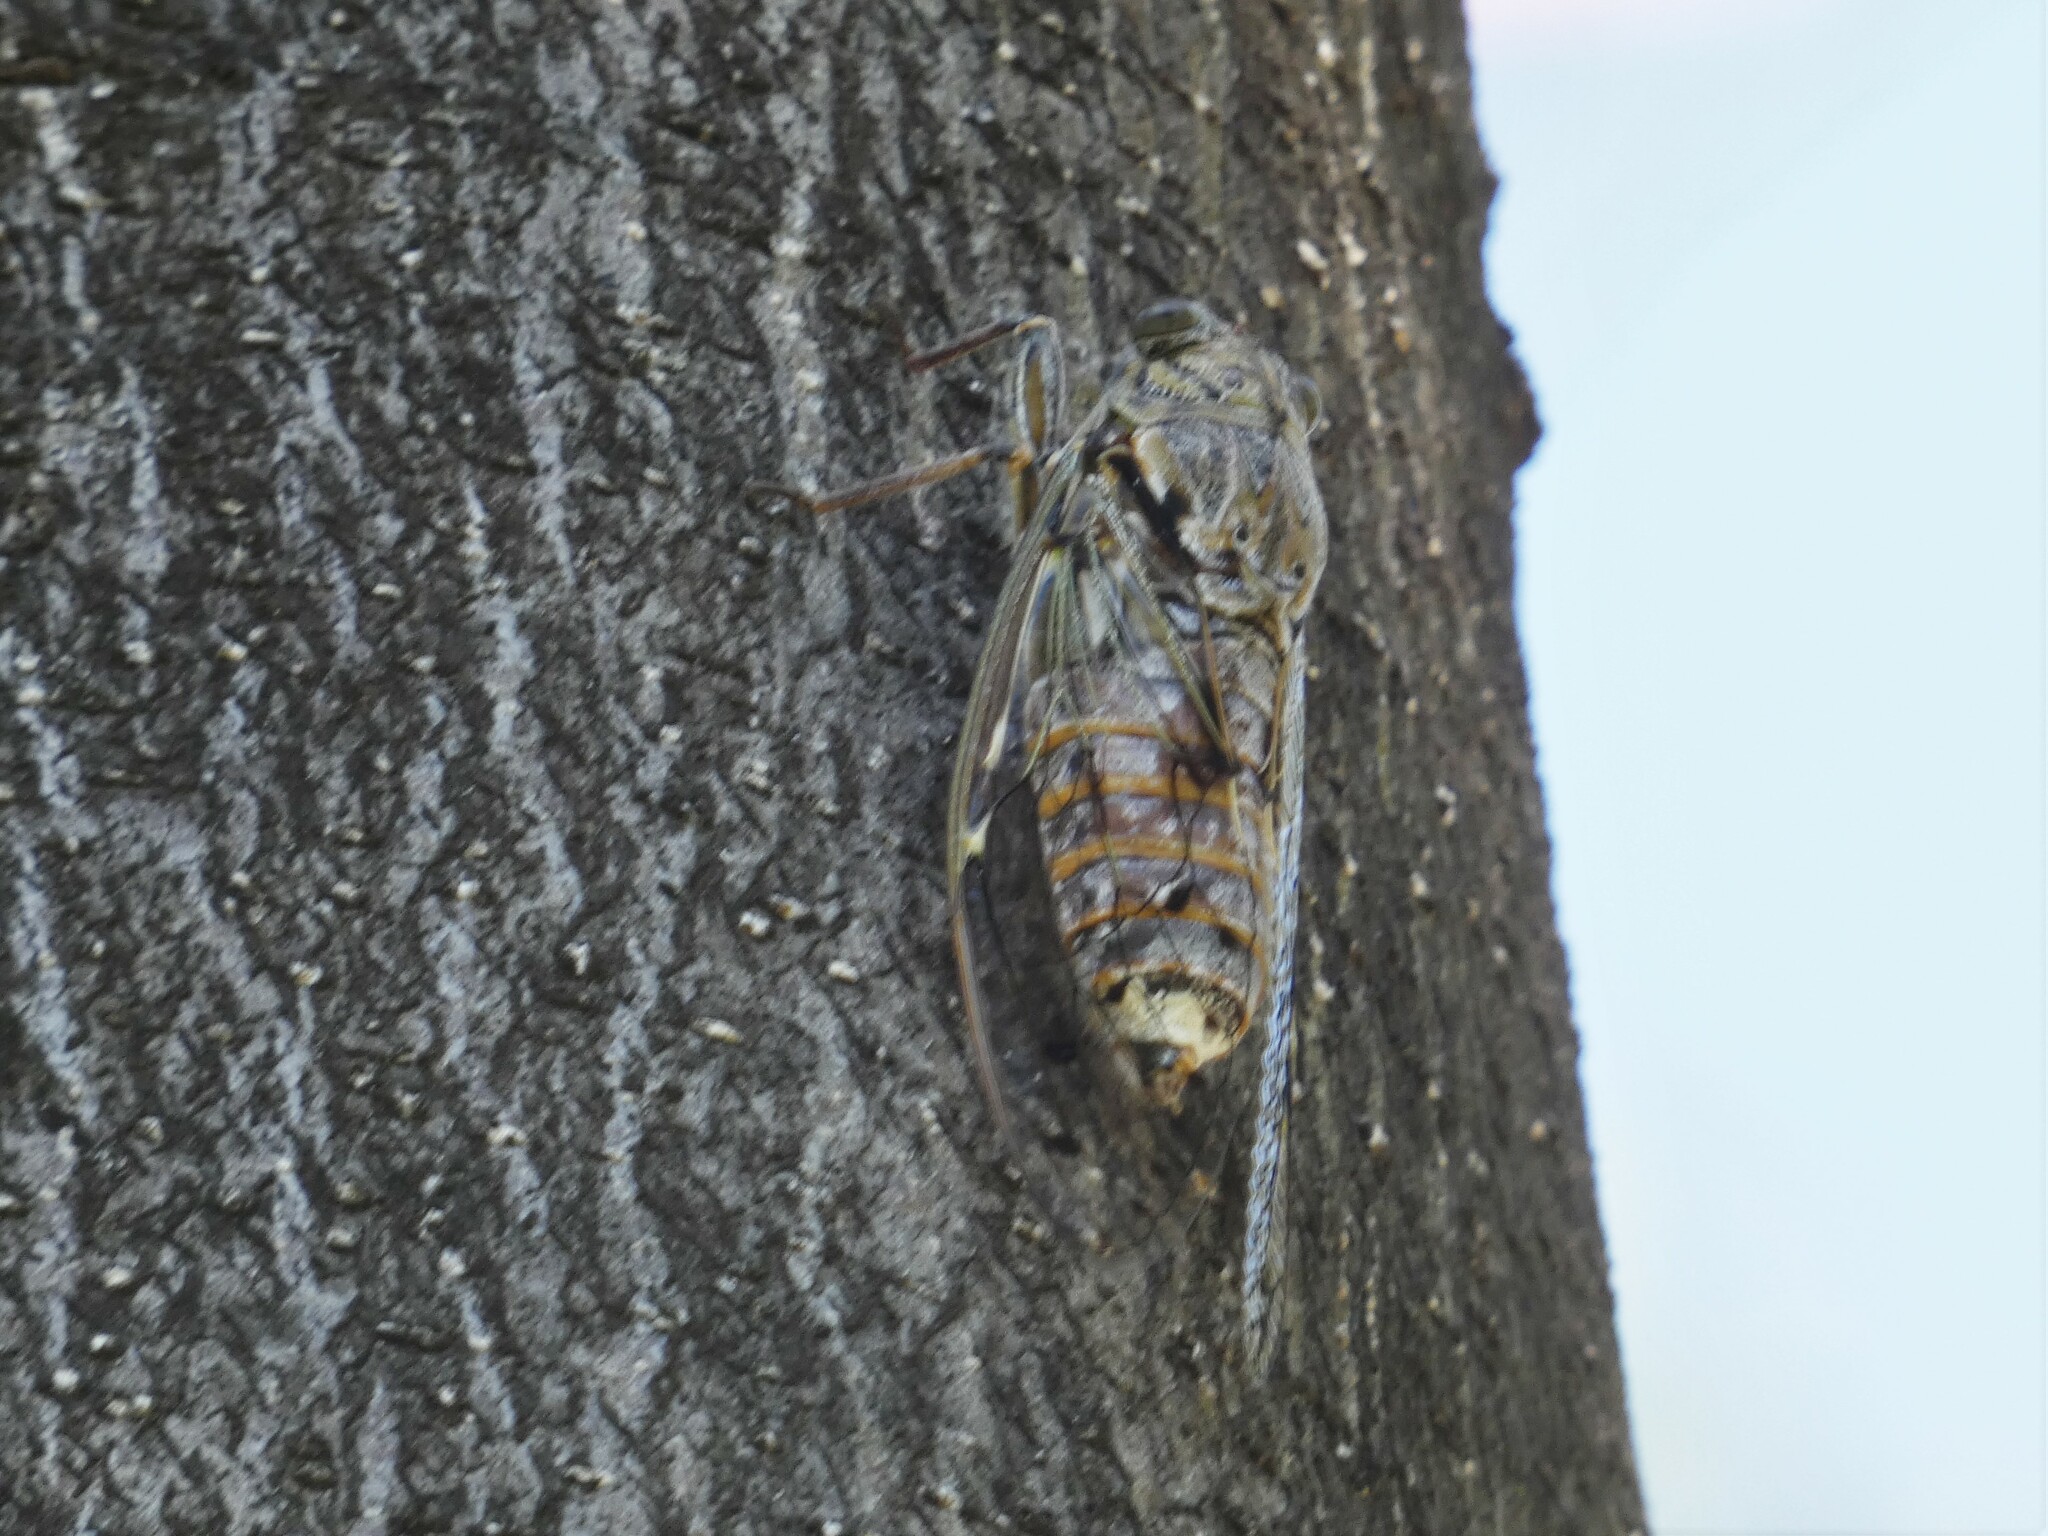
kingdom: Animalia
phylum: Arthropoda
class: Insecta
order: Hemiptera
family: Cicadidae
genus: Cicada
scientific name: Cicada orni
